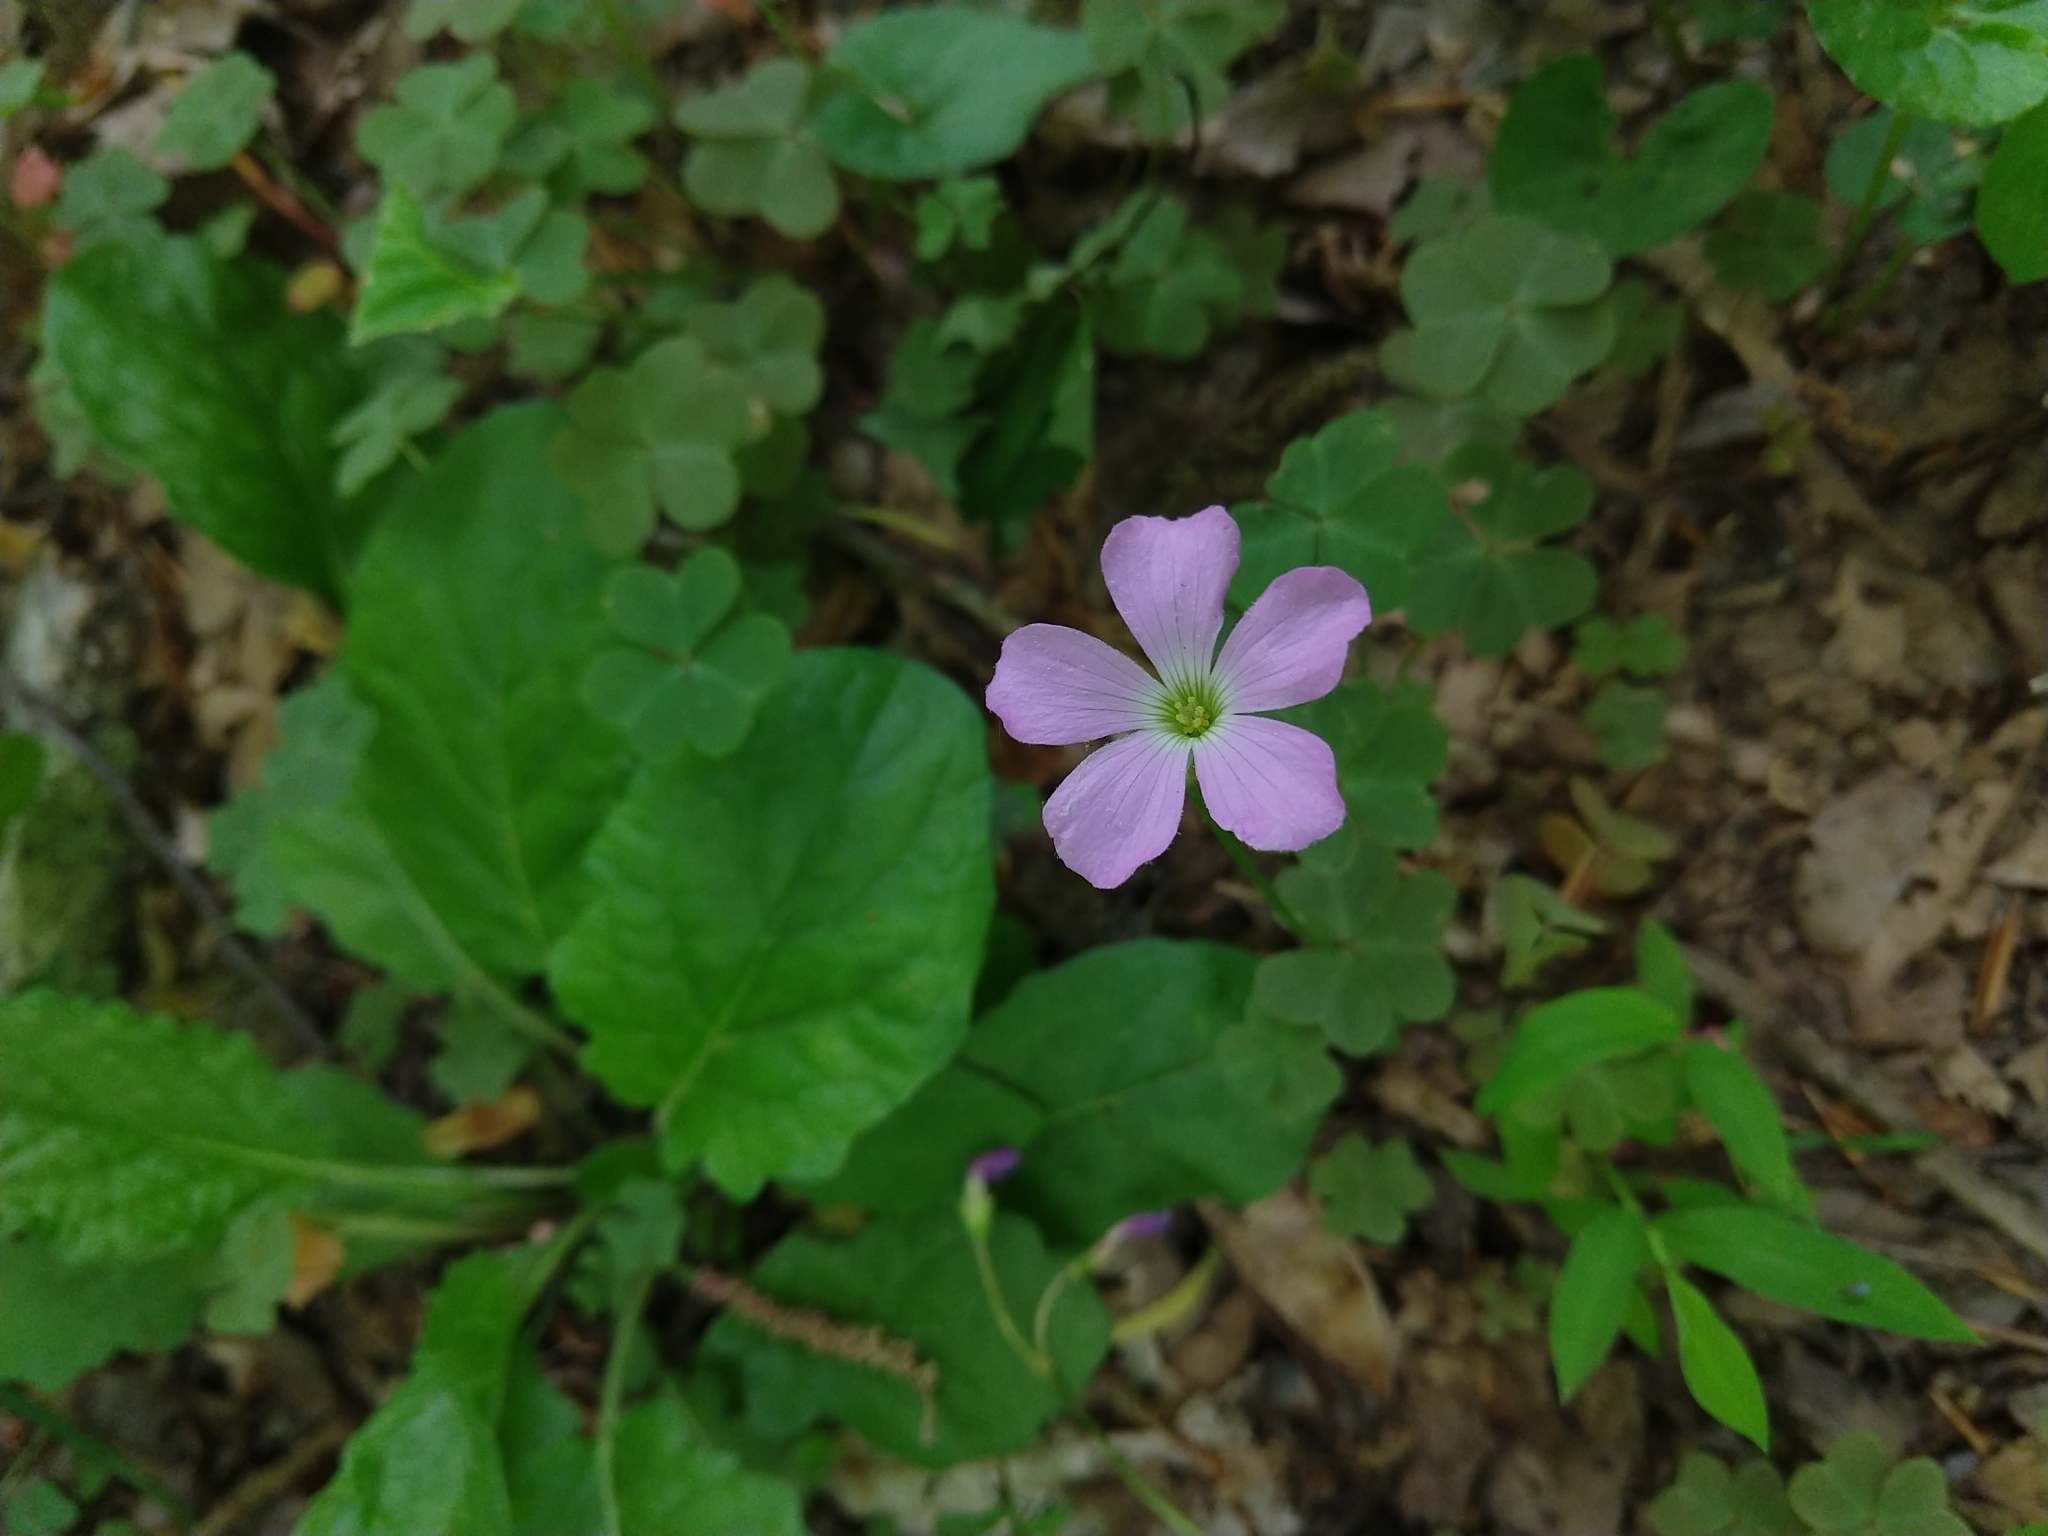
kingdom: Plantae
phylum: Tracheophyta
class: Magnoliopsida
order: Oxalidales
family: Oxalidaceae
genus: Oxalis
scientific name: Oxalis violacea
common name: Violet wood-sorrel
